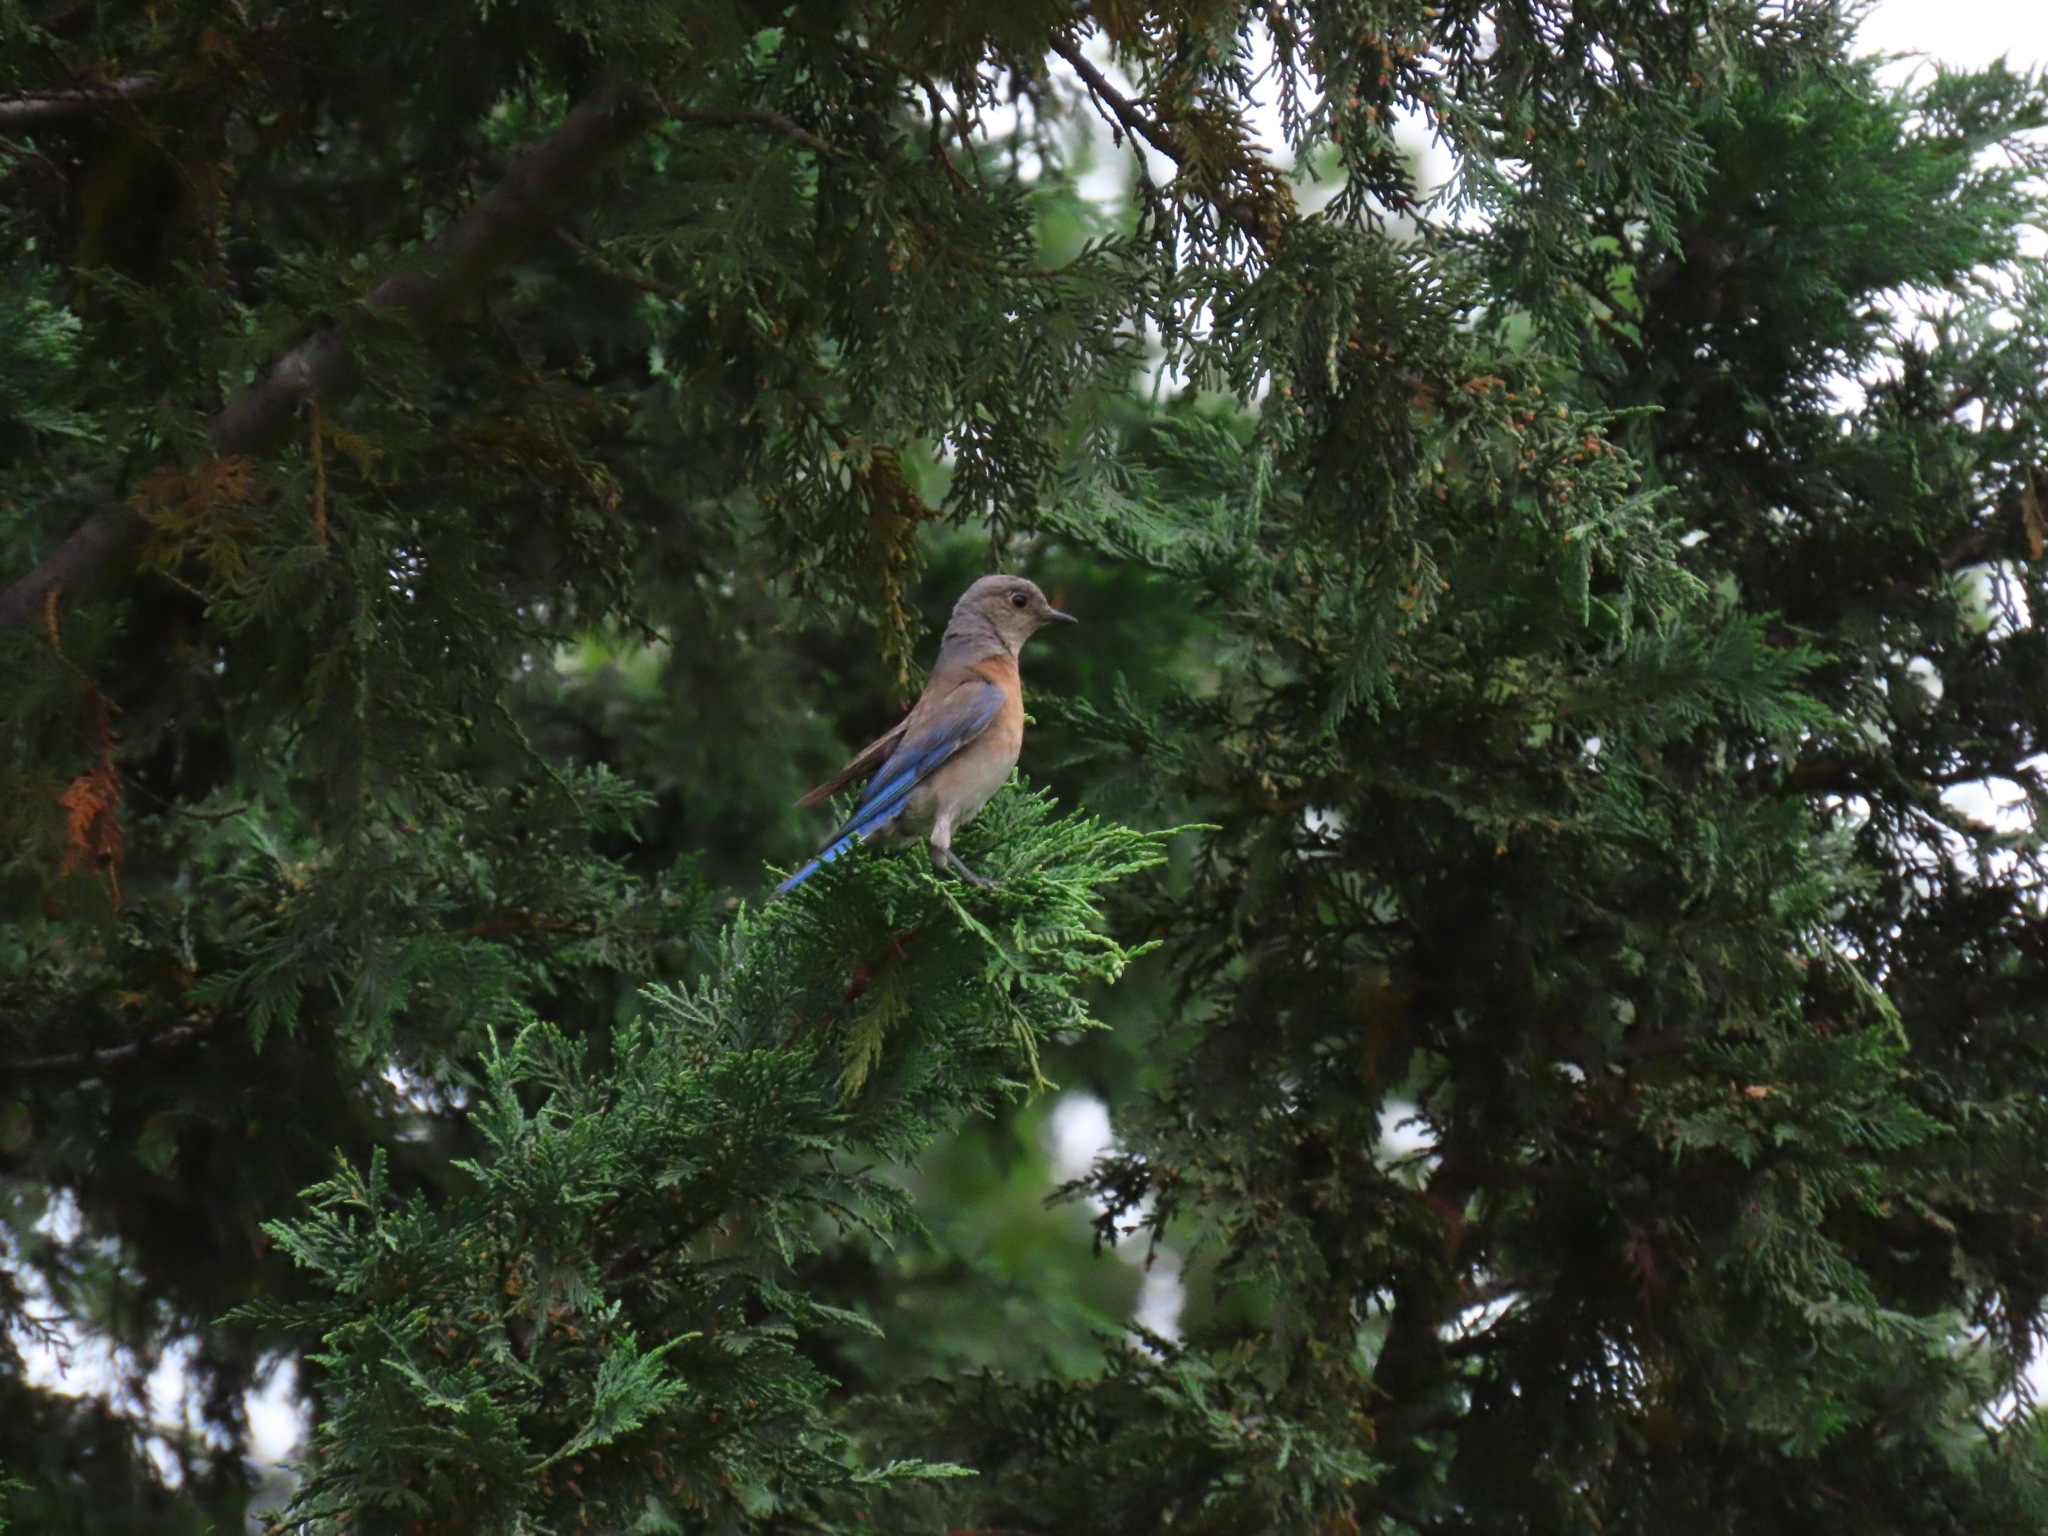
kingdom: Animalia
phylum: Chordata
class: Aves
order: Passeriformes
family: Turdidae
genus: Sialia
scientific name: Sialia mexicana
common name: Western bluebird
